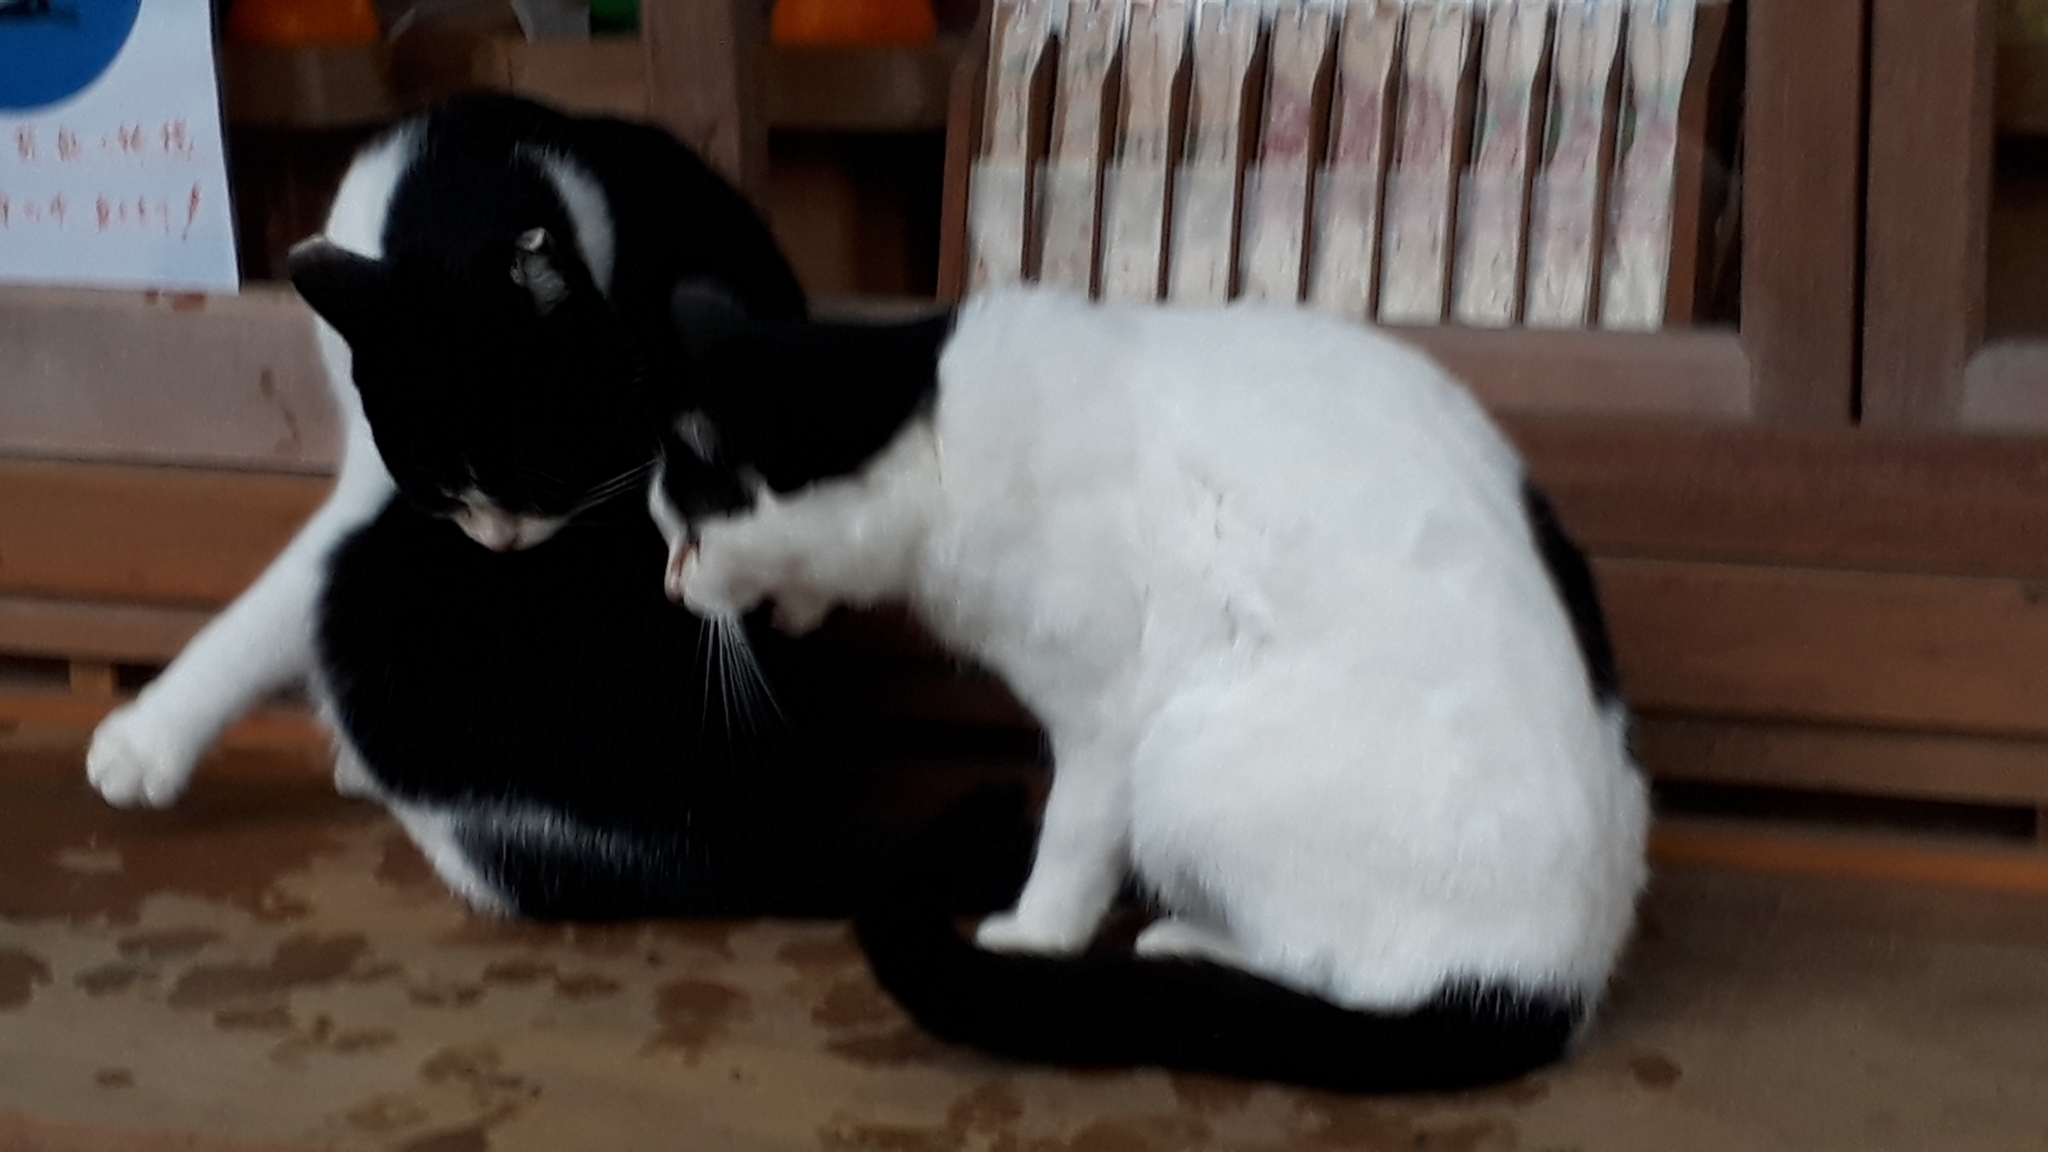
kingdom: Animalia
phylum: Chordata
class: Mammalia
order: Carnivora
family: Felidae
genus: Felis
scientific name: Felis catus
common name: Domestic cat
